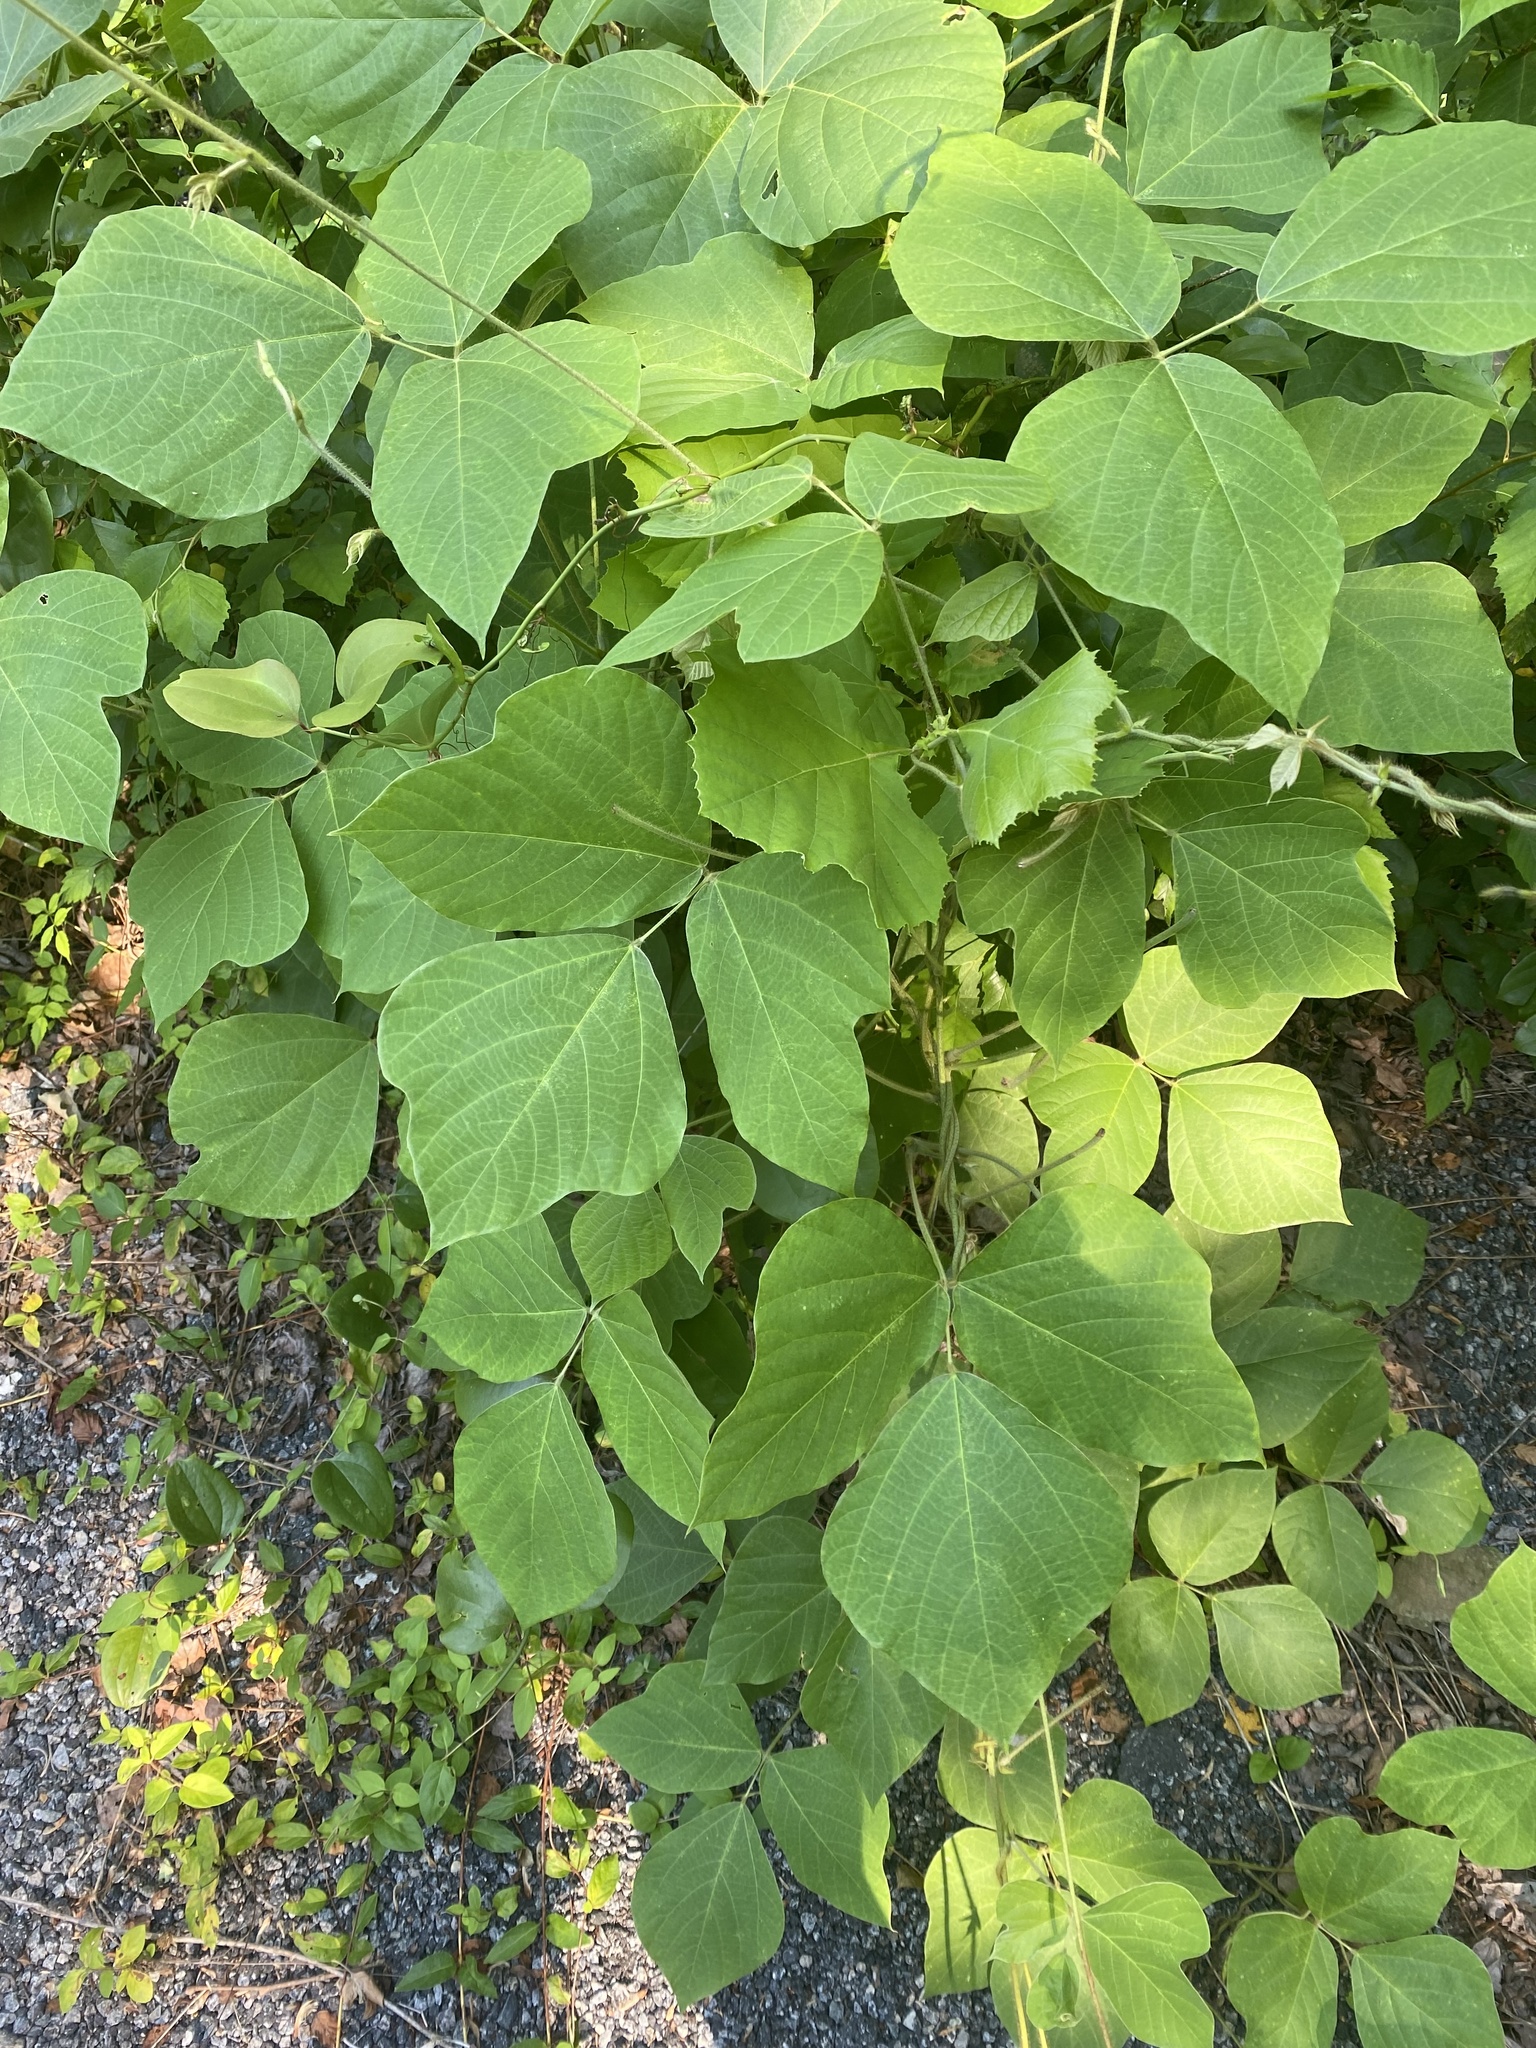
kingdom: Plantae
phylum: Tracheophyta
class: Magnoliopsida
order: Fabales
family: Fabaceae
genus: Pueraria
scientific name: Pueraria montana
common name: Kudzu
